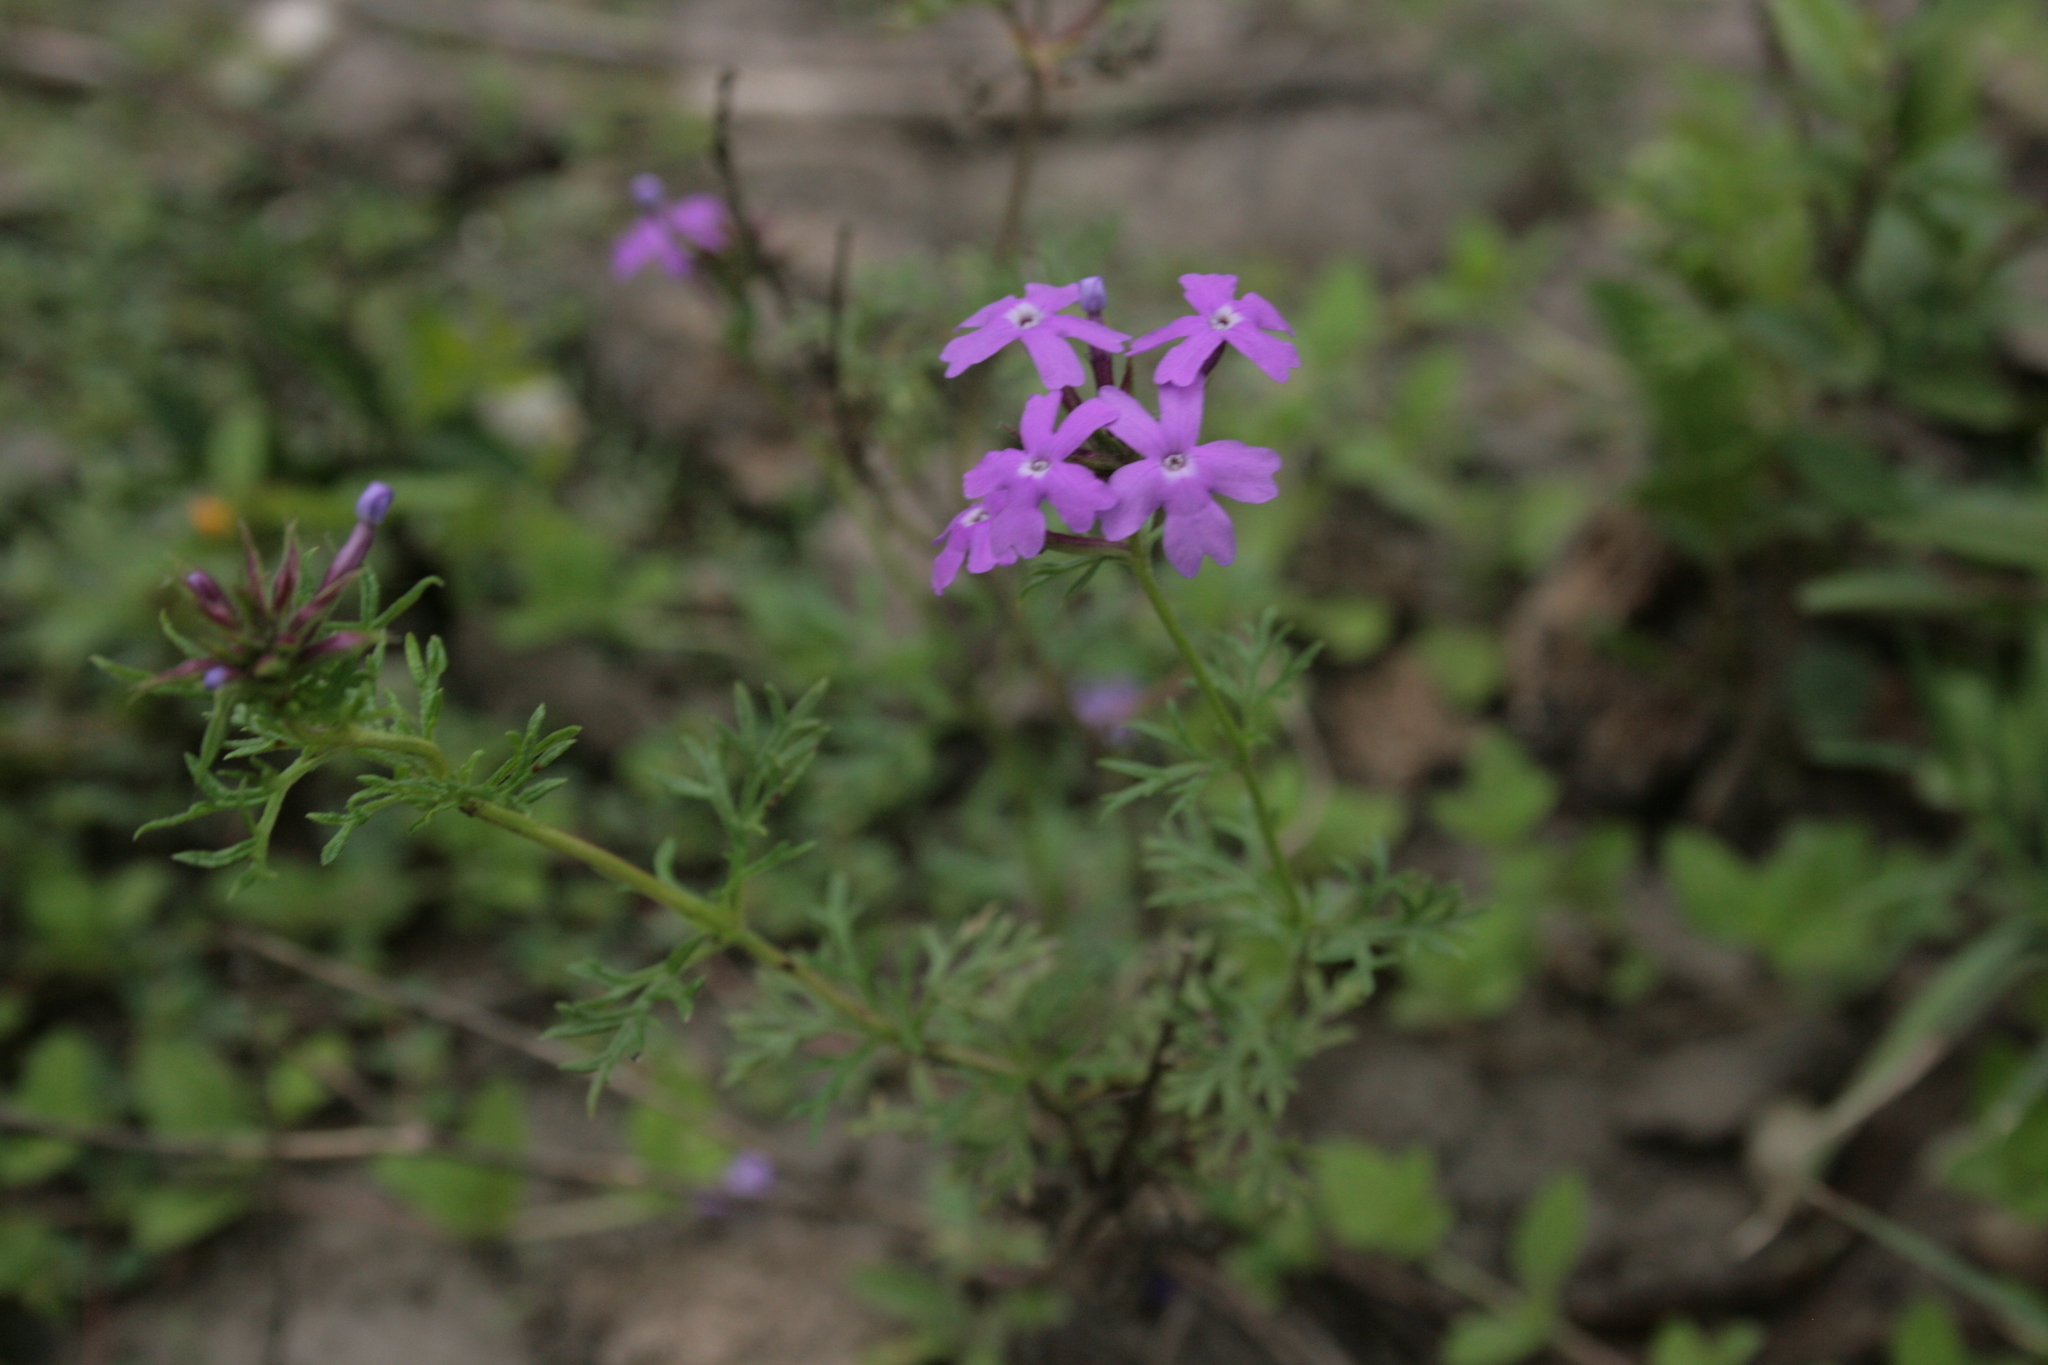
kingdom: Plantae
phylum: Tracheophyta
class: Magnoliopsida
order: Lamiales
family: Verbenaceae
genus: Verbena
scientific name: Verbena aristigera
